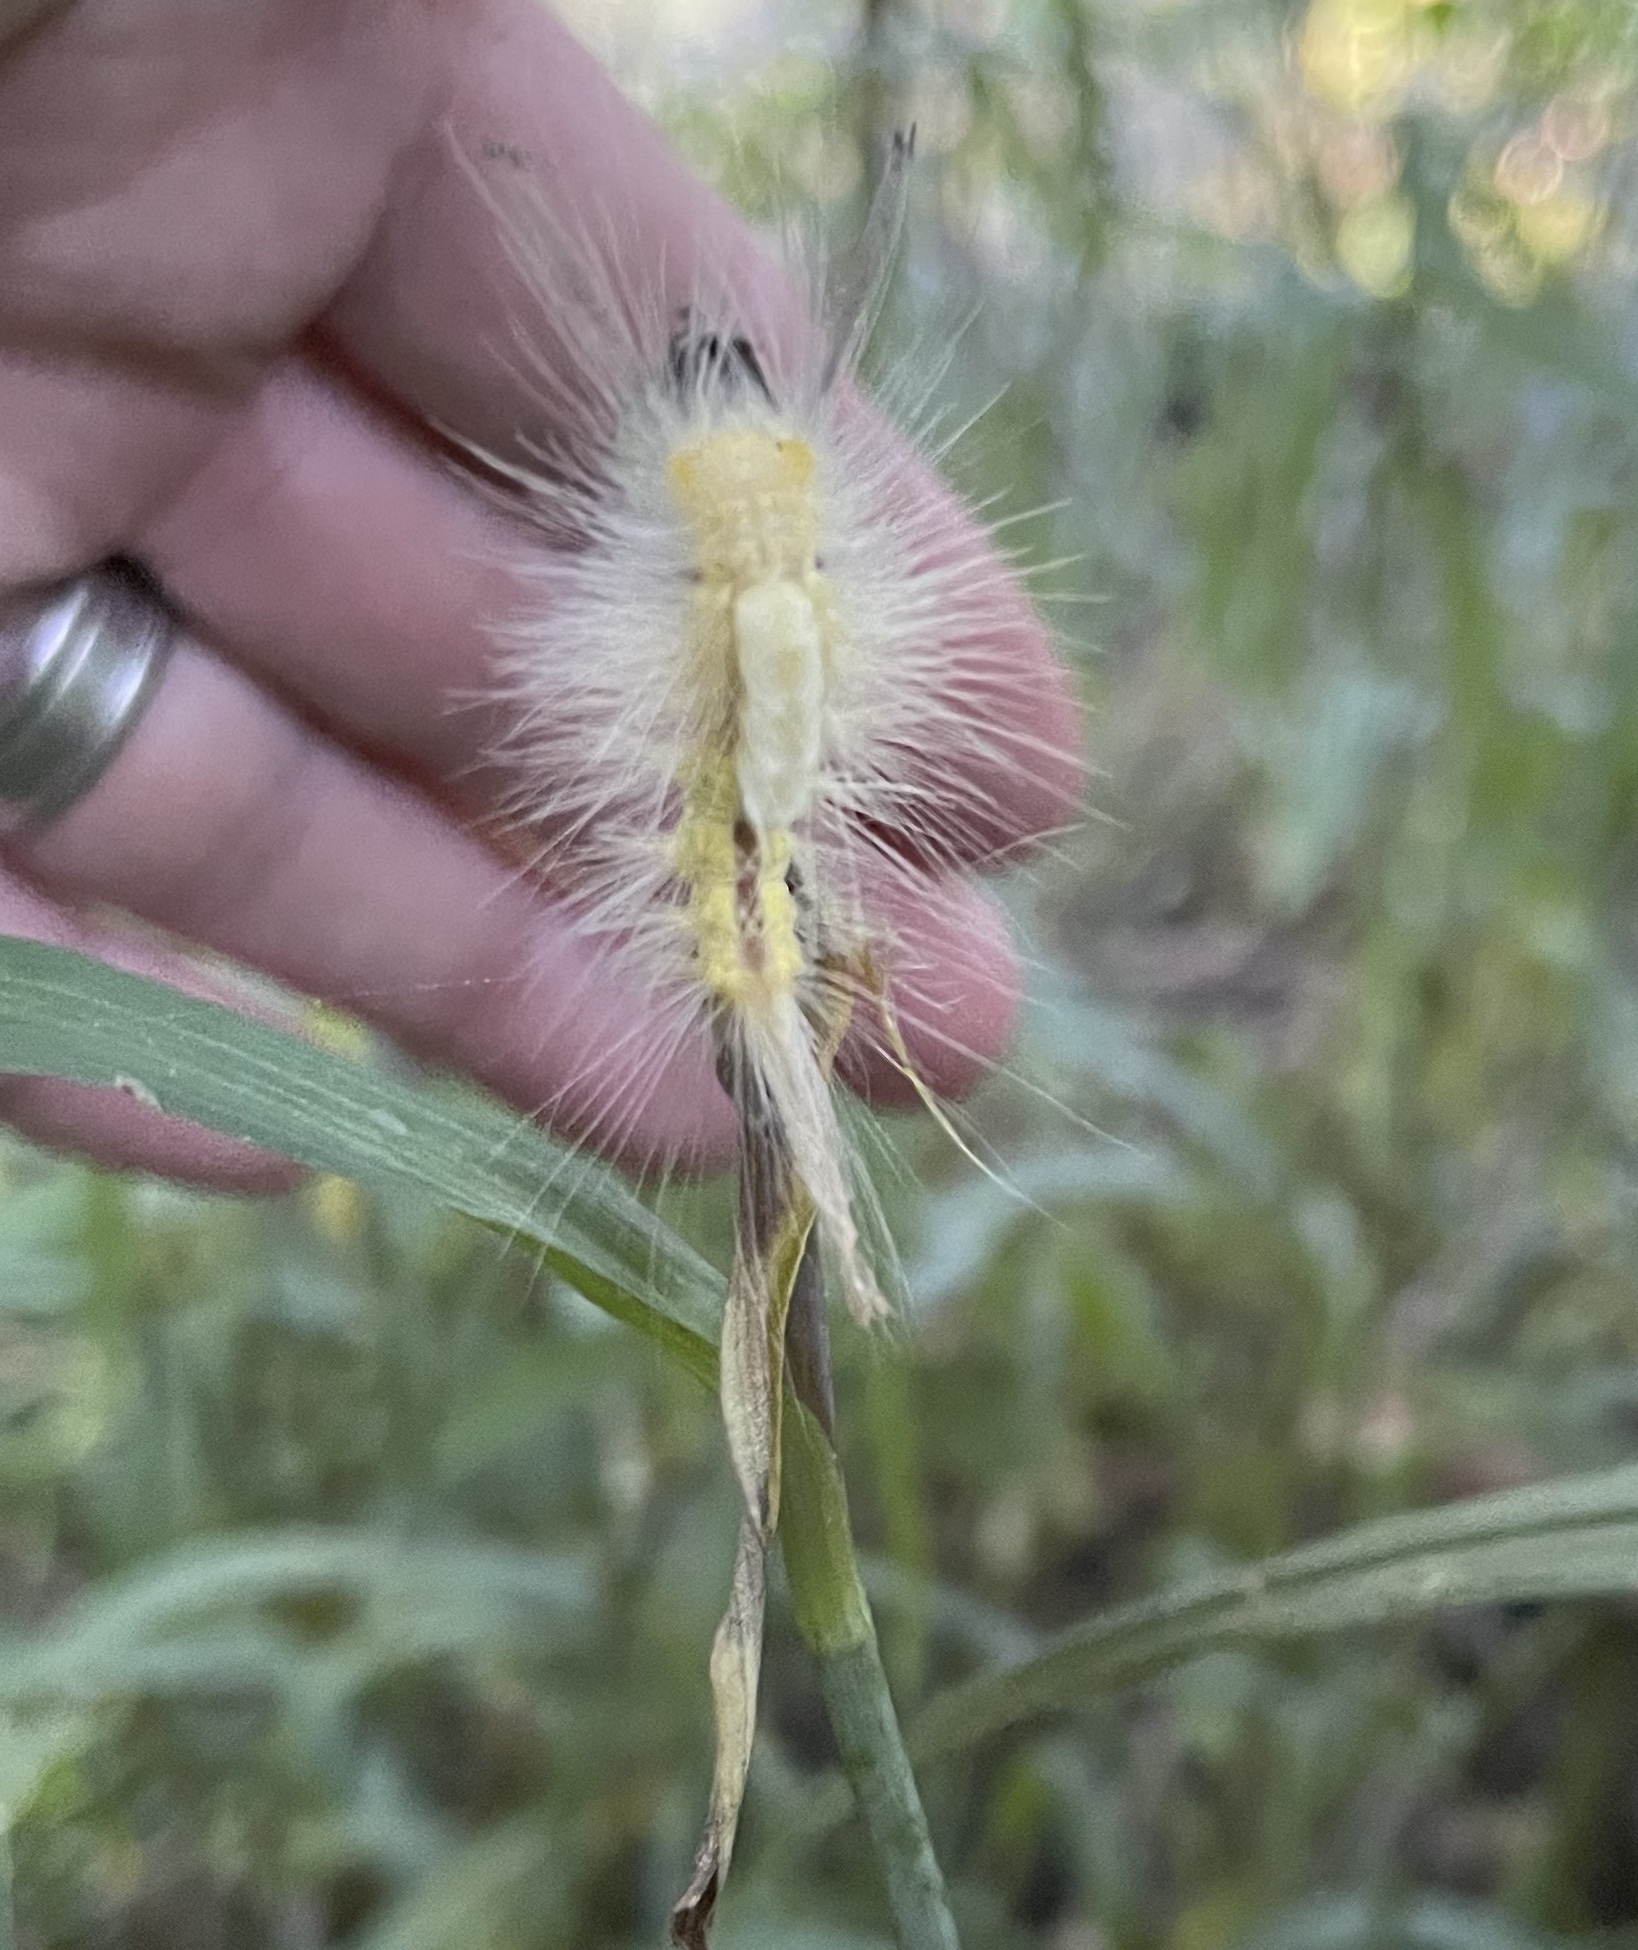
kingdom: Animalia
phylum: Arthropoda
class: Insecta
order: Lepidoptera
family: Erebidae
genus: Orgyia
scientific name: Orgyia definita
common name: Definite tussock moth
